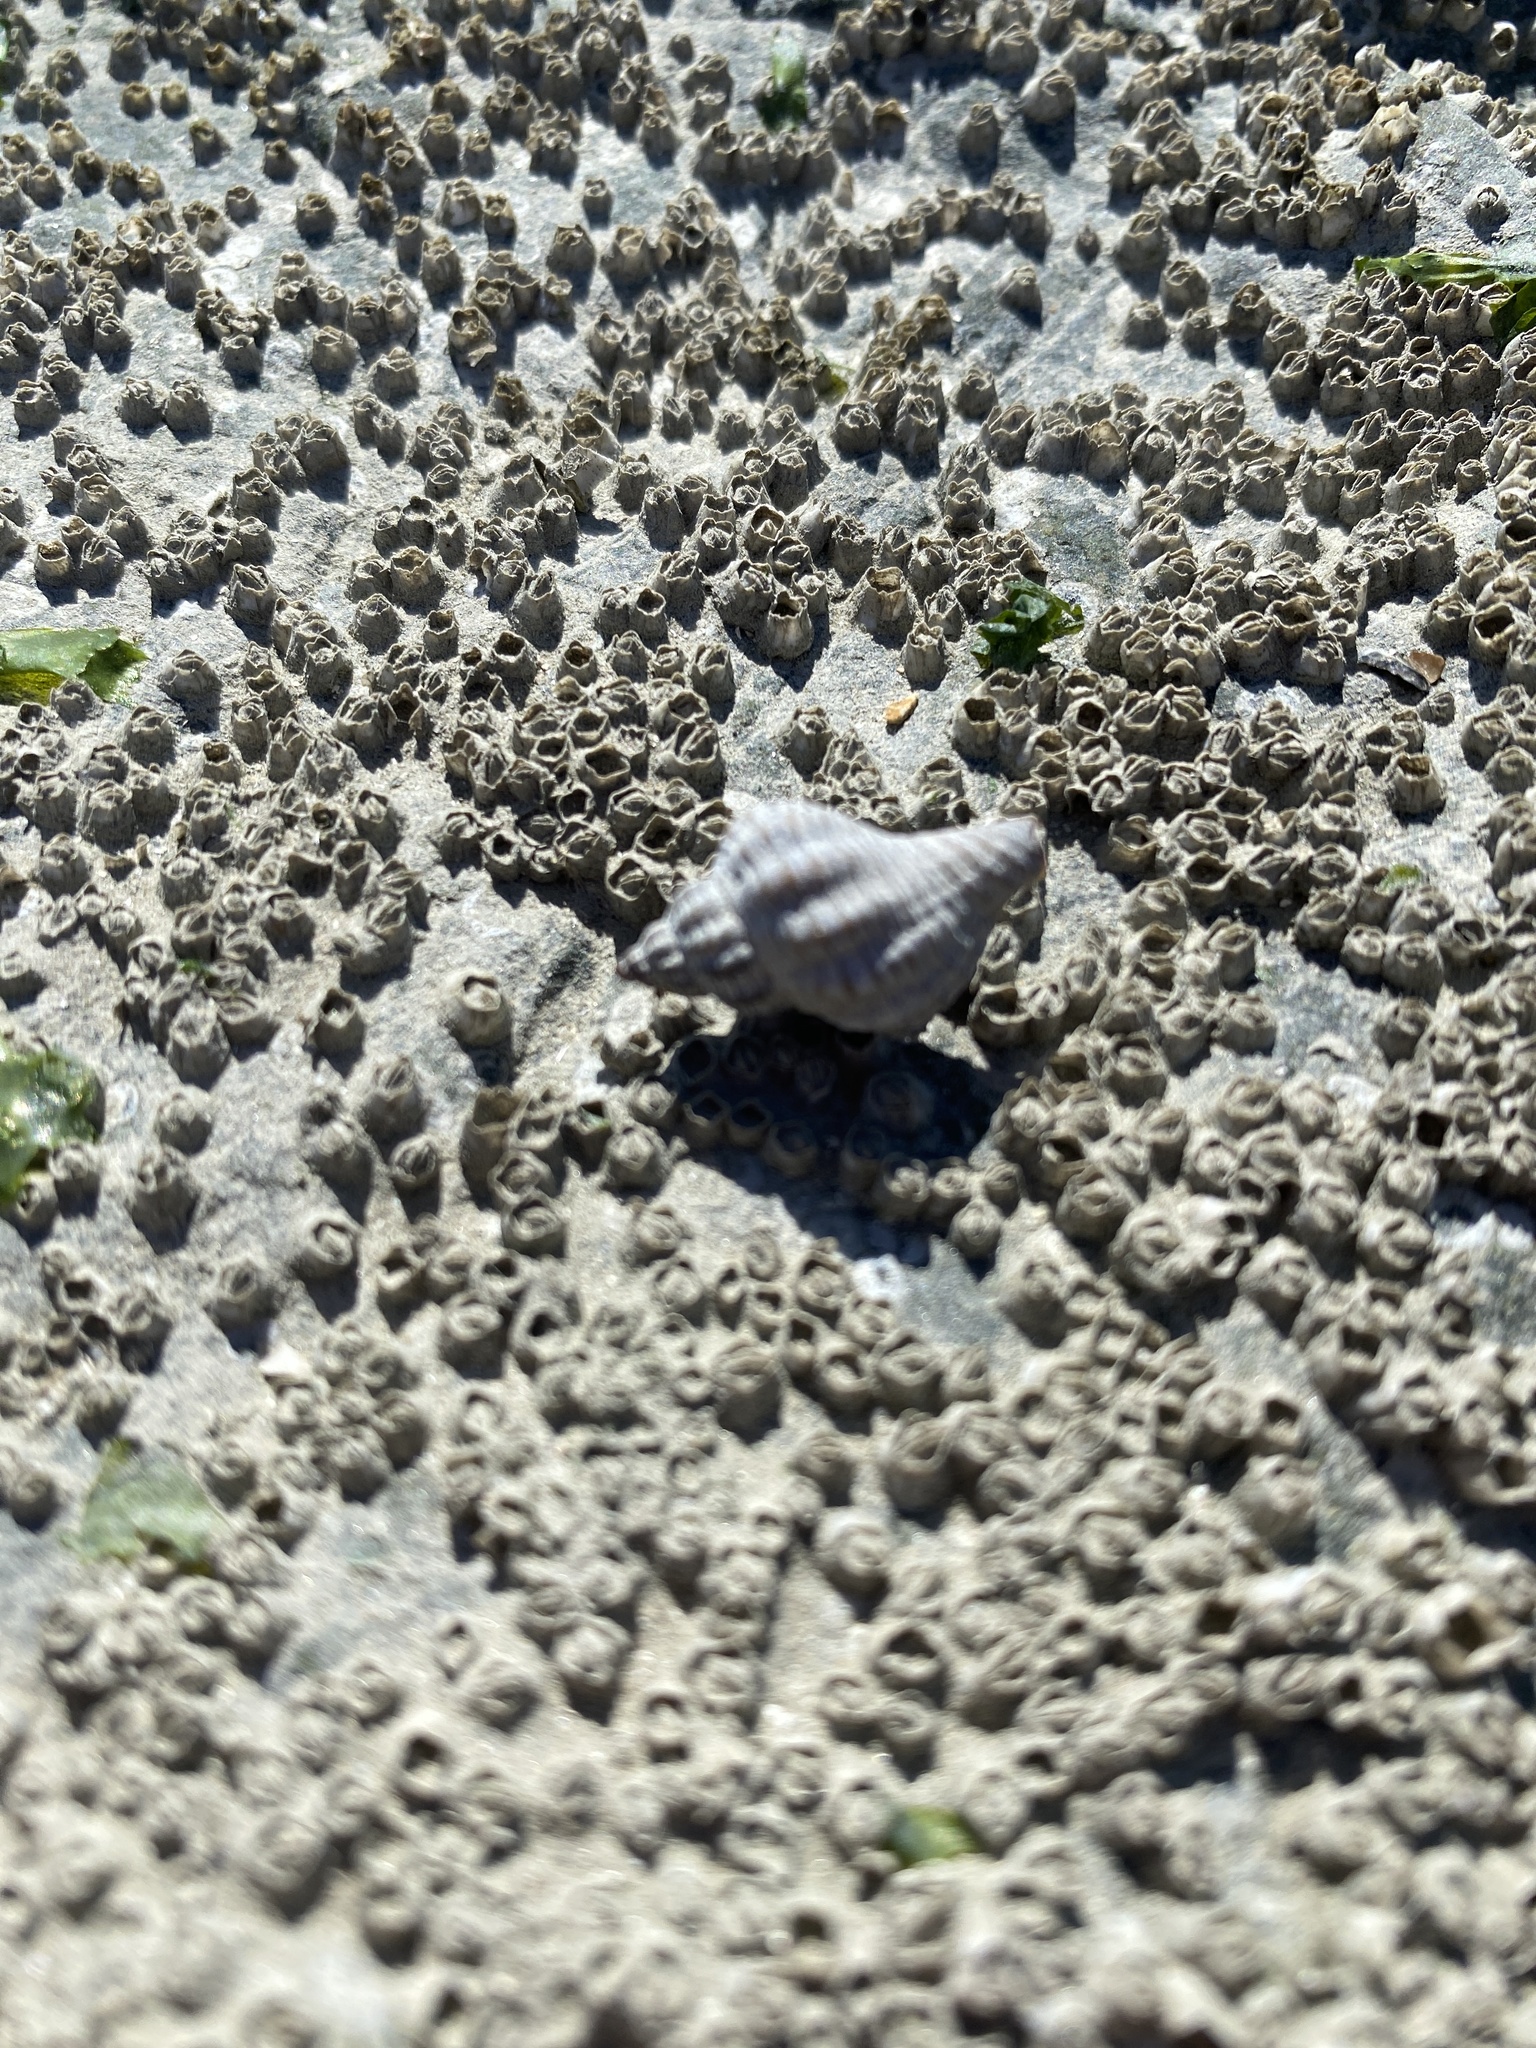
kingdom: Animalia
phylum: Mollusca
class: Gastropoda
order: Neogastropoda
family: Muricidae
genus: Urosalpinx
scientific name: Urosalpinx cinerea
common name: American sting winkle
